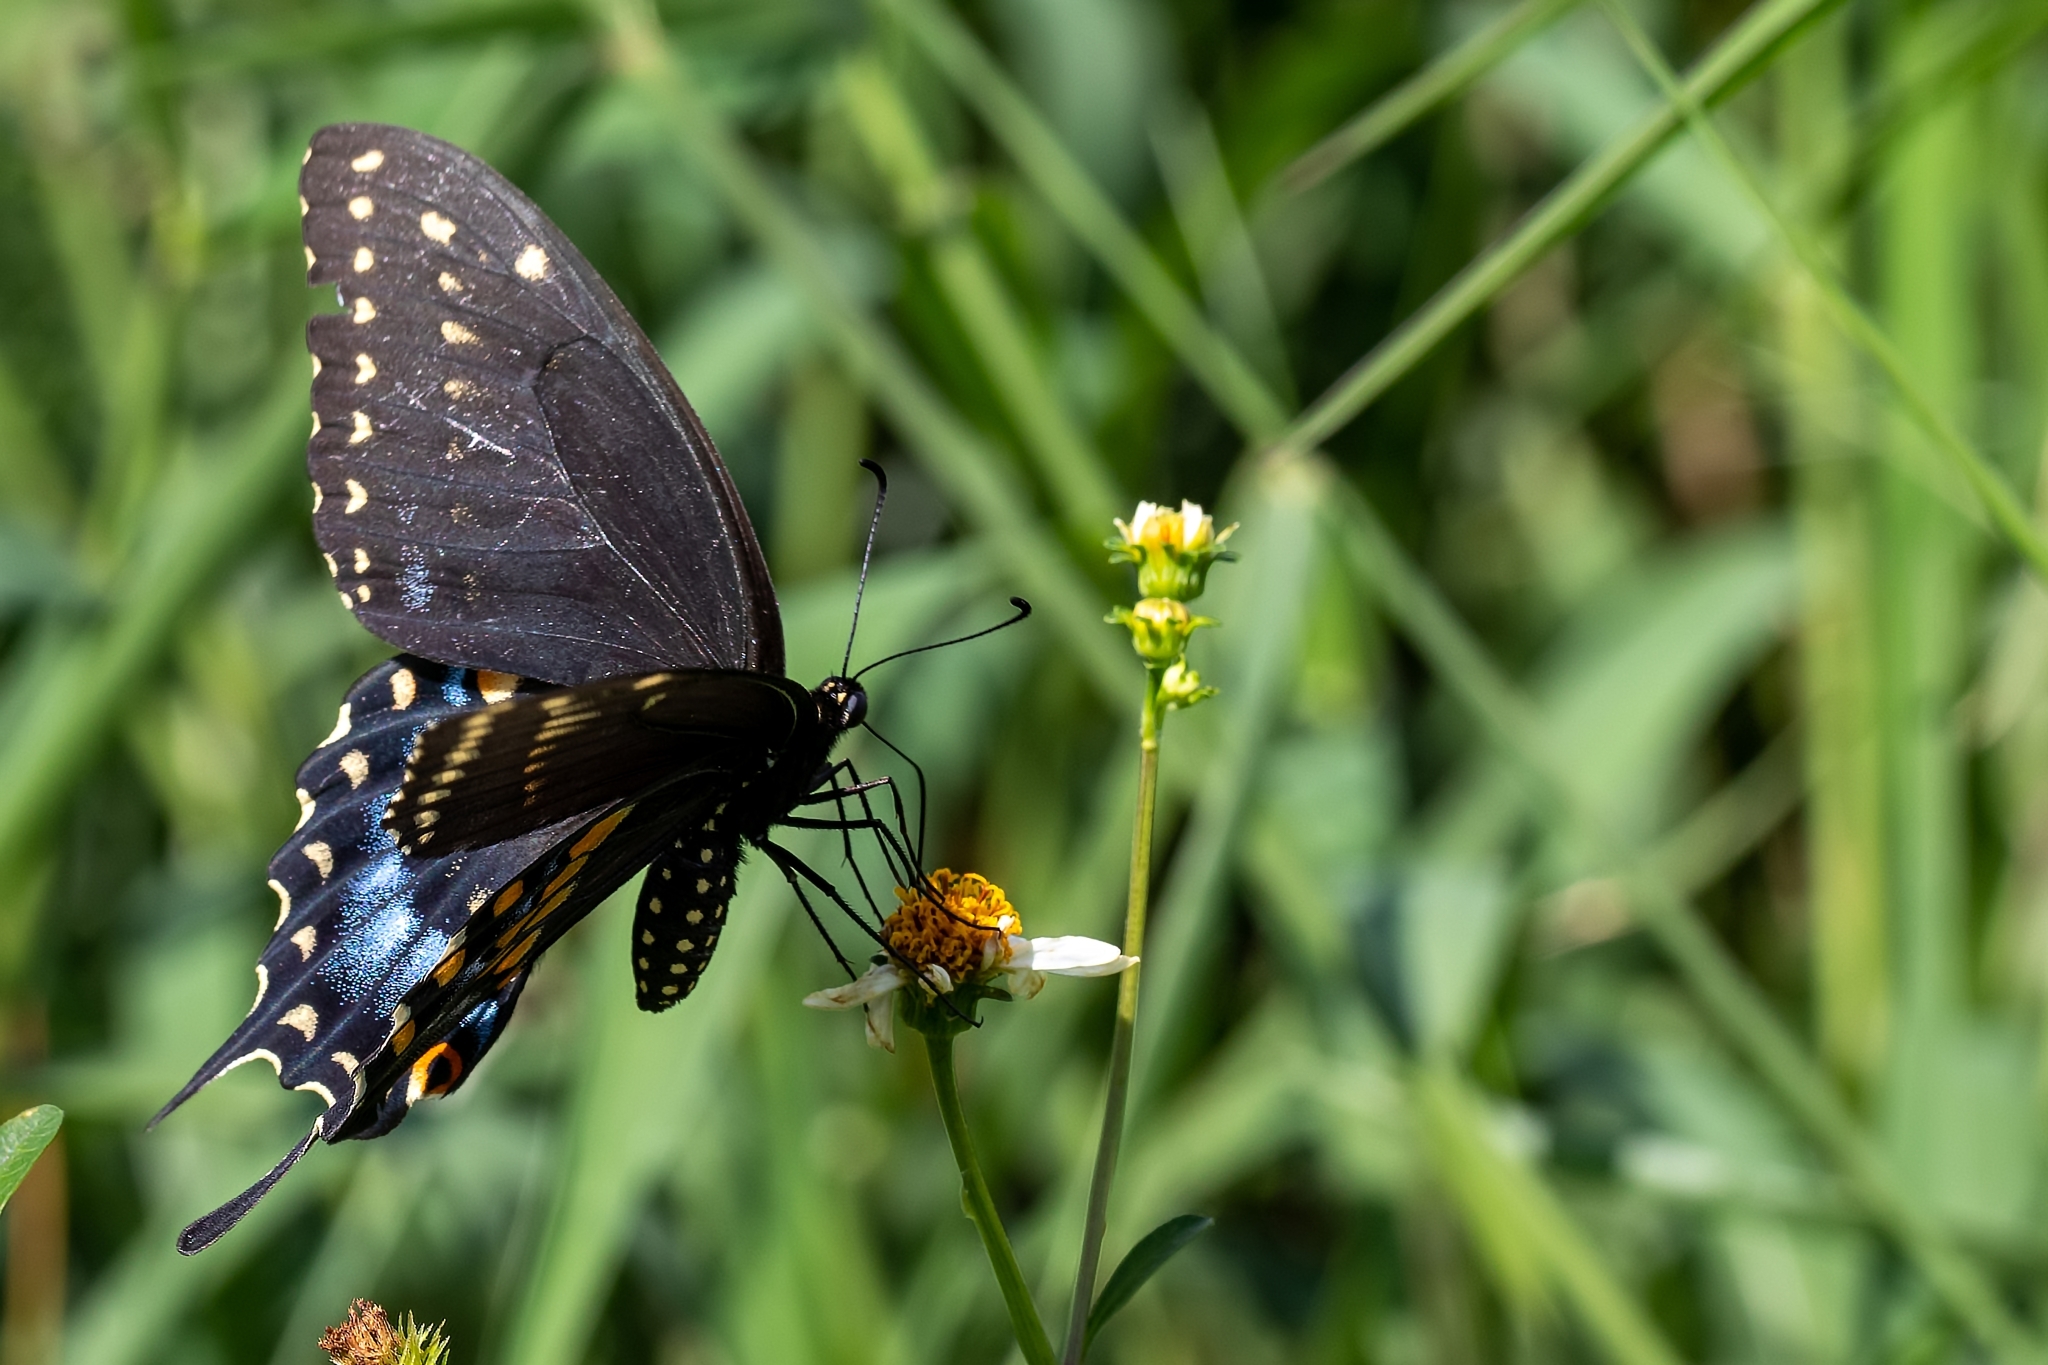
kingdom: Animalia
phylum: Arthropoda
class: Insecta
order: Lepidoptera
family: Papilionidae
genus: Papilio
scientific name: Papilio polyxenes
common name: Black swallowtail
